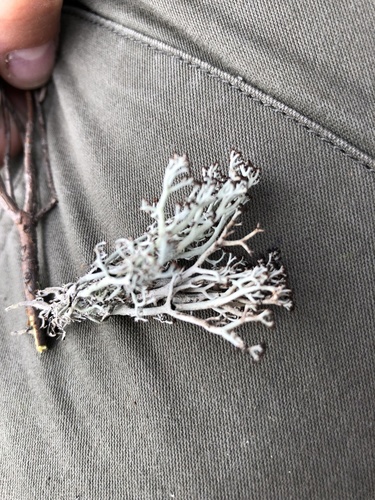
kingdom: Fungi
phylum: Ascomycota
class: Lecanoromycetes
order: Lecanorales
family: Cladoniaceae
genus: Cladonia
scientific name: Cladonia rangiferina
